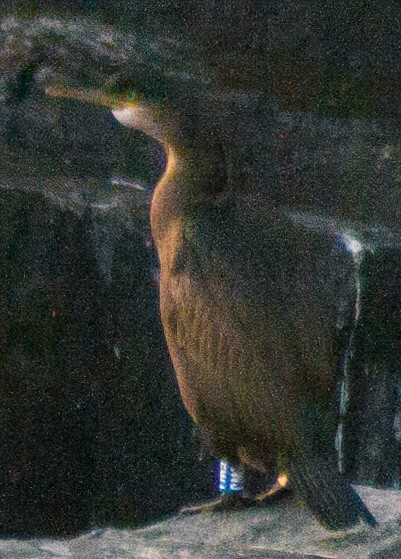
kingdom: Animalia
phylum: Chordata
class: Aves
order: Suliformes
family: Phalacrocoracidae
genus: Phalacrocorax
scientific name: Phalacrocorax aristotelis
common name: European shag
